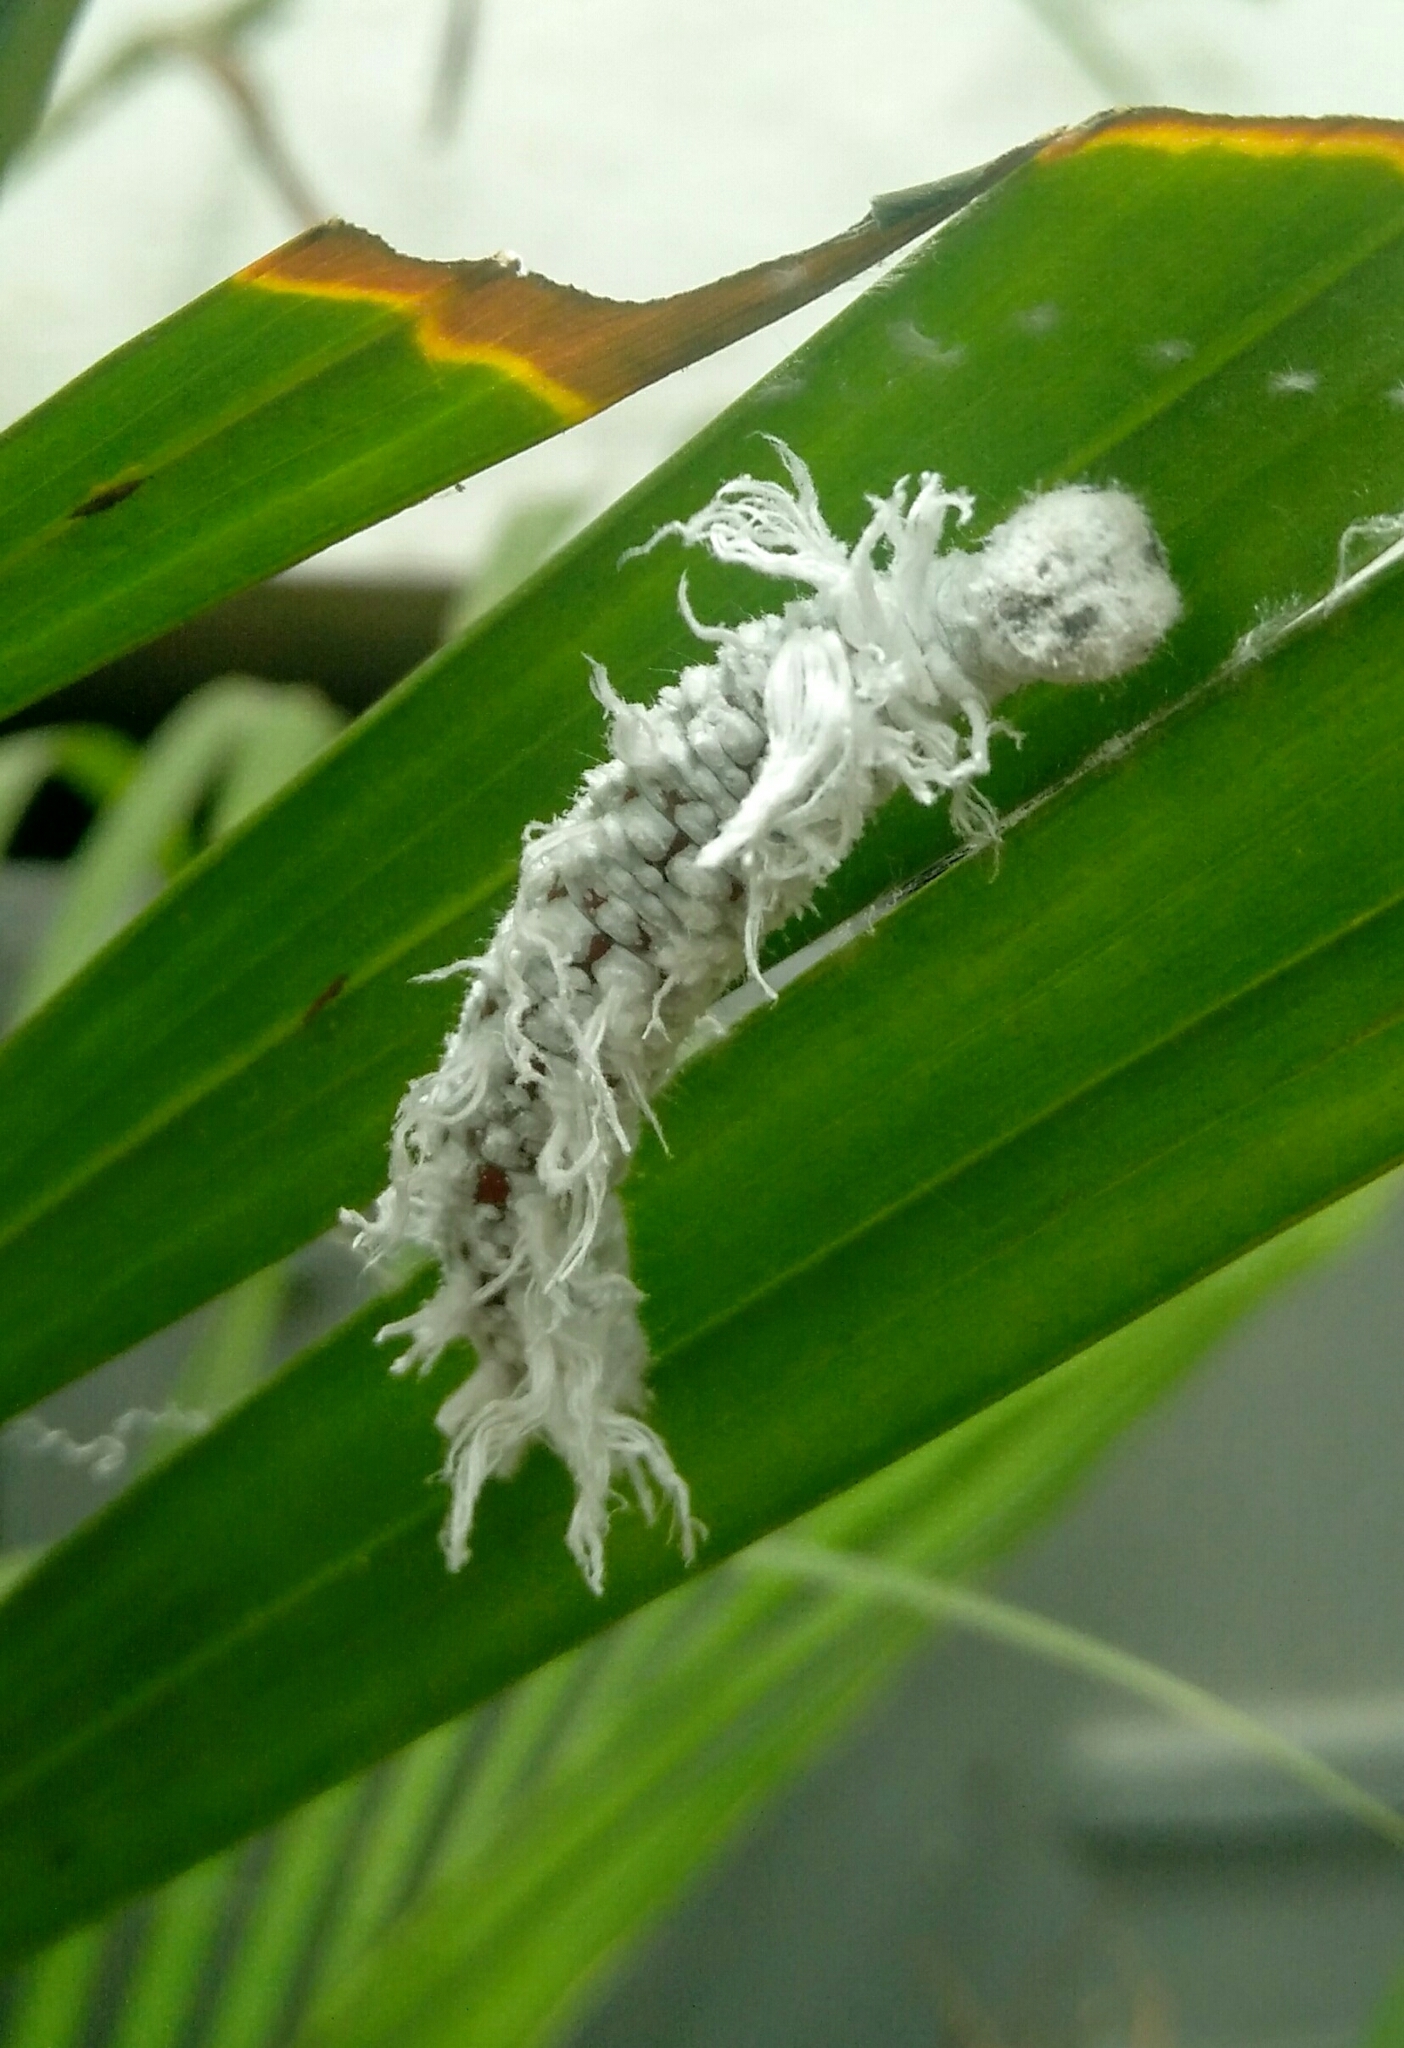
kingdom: Animalia
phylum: Arthropoda
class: Insecta
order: Lepidoptera
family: Hesperiidae
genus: Gangara
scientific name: Gangara thyrsis
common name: Giant redeye
